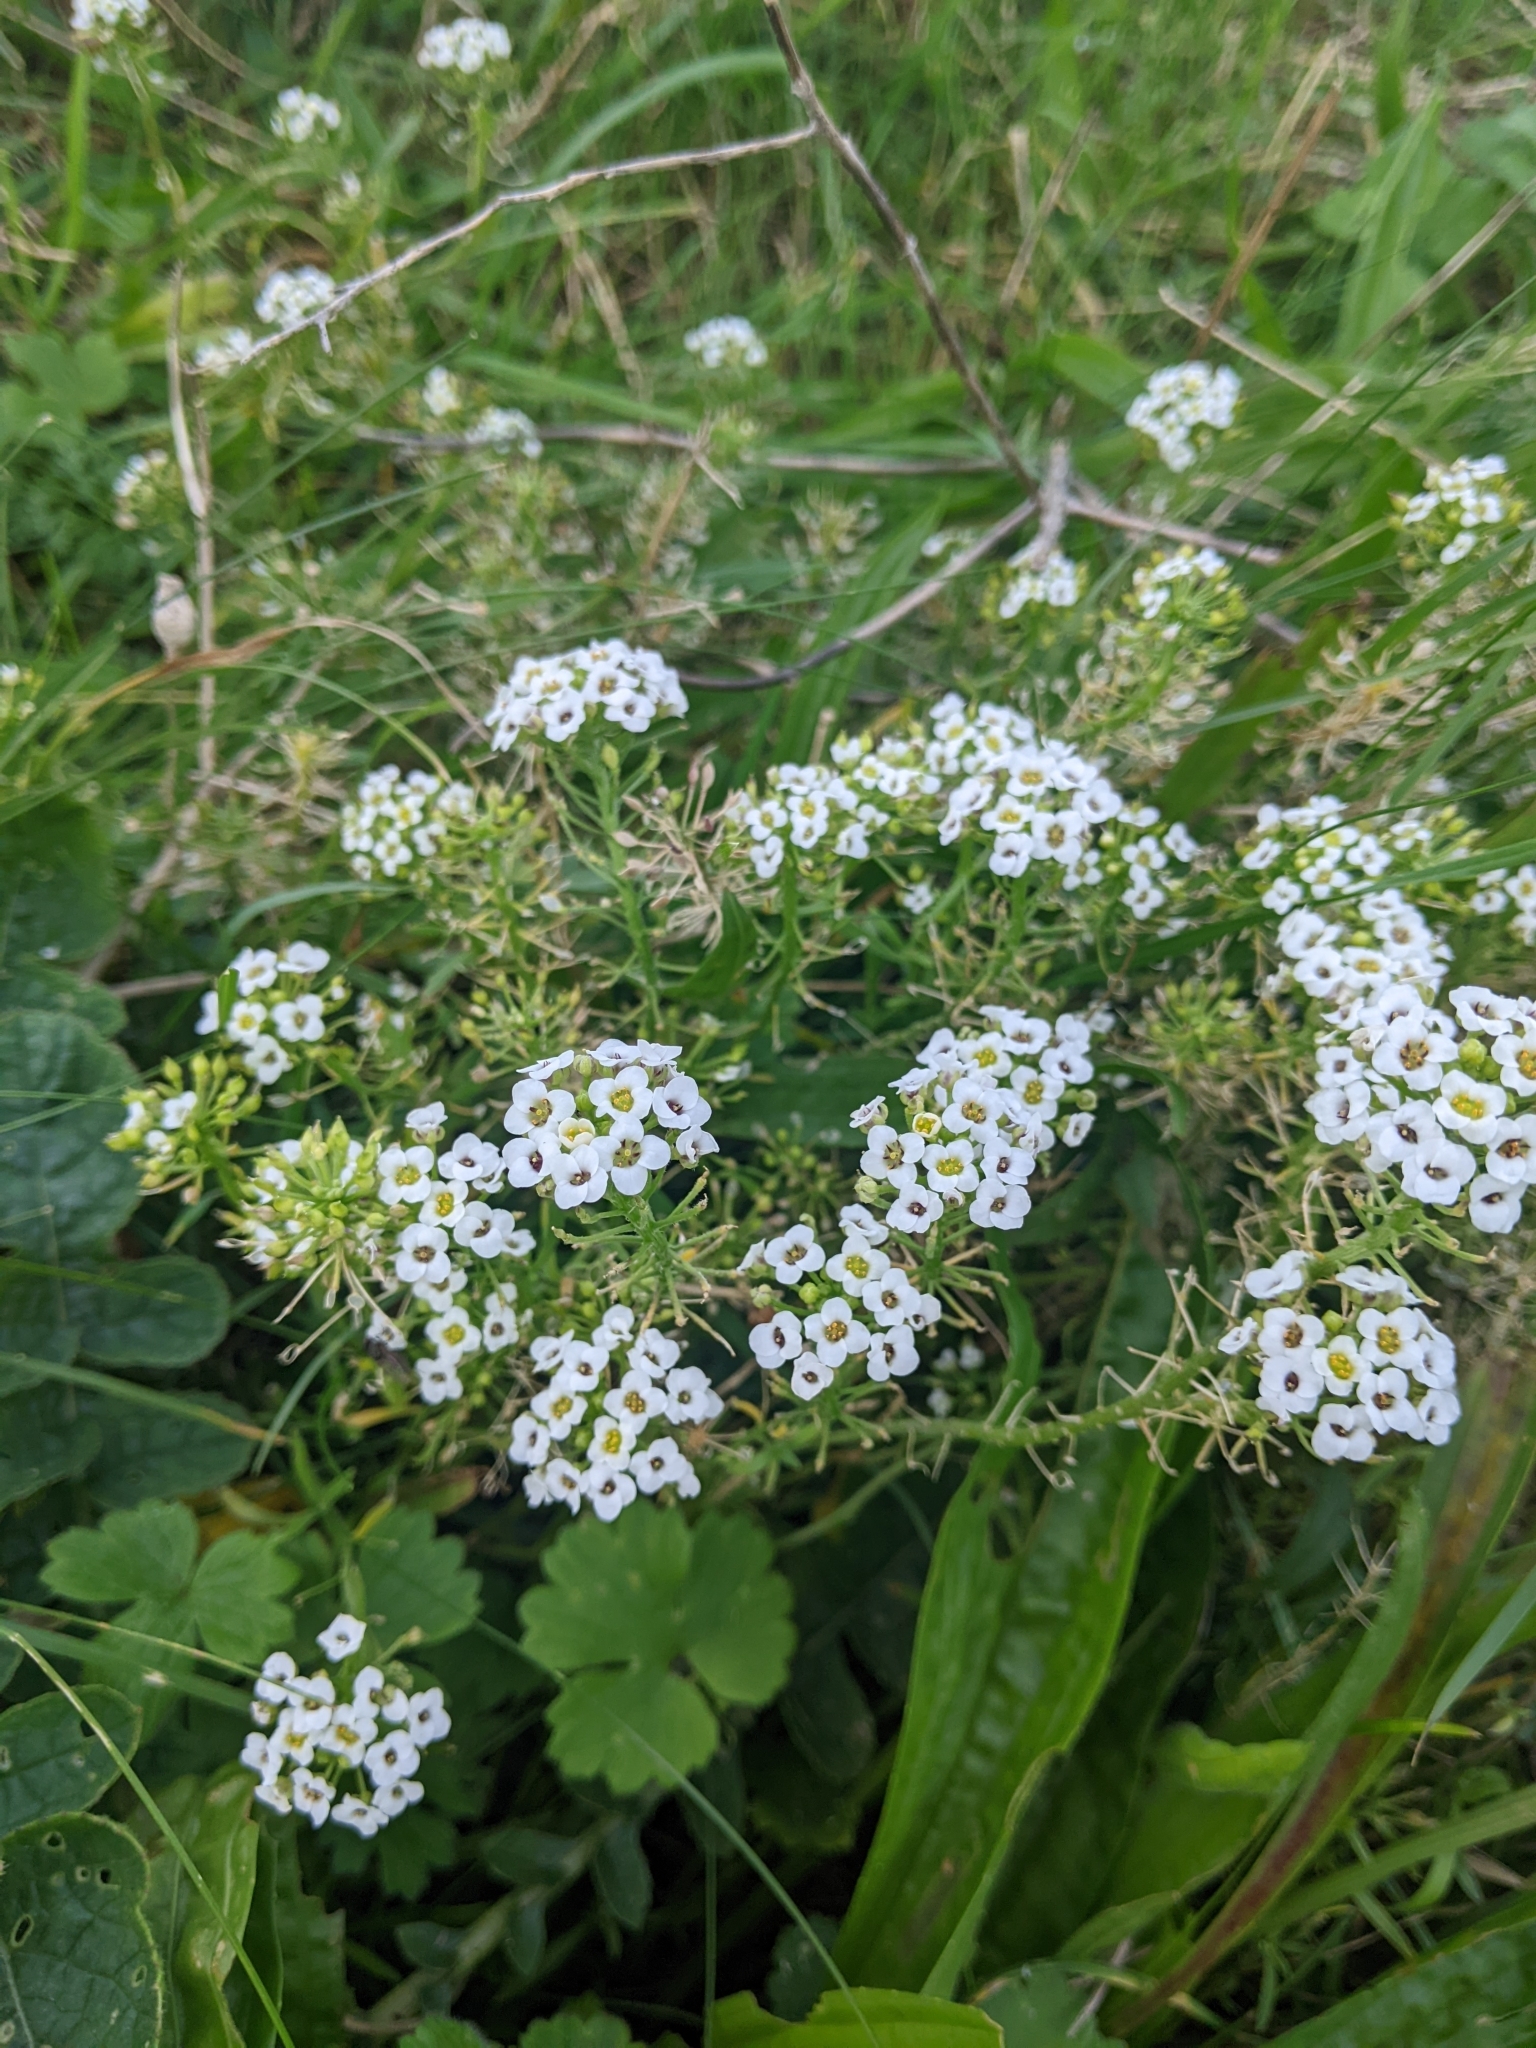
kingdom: Plantae
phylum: Tracheophyta
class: Magnoliopsida
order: Brassicales
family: Brassicaceae
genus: Lobularia
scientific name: Lobularia maritima
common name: Sweet alison
